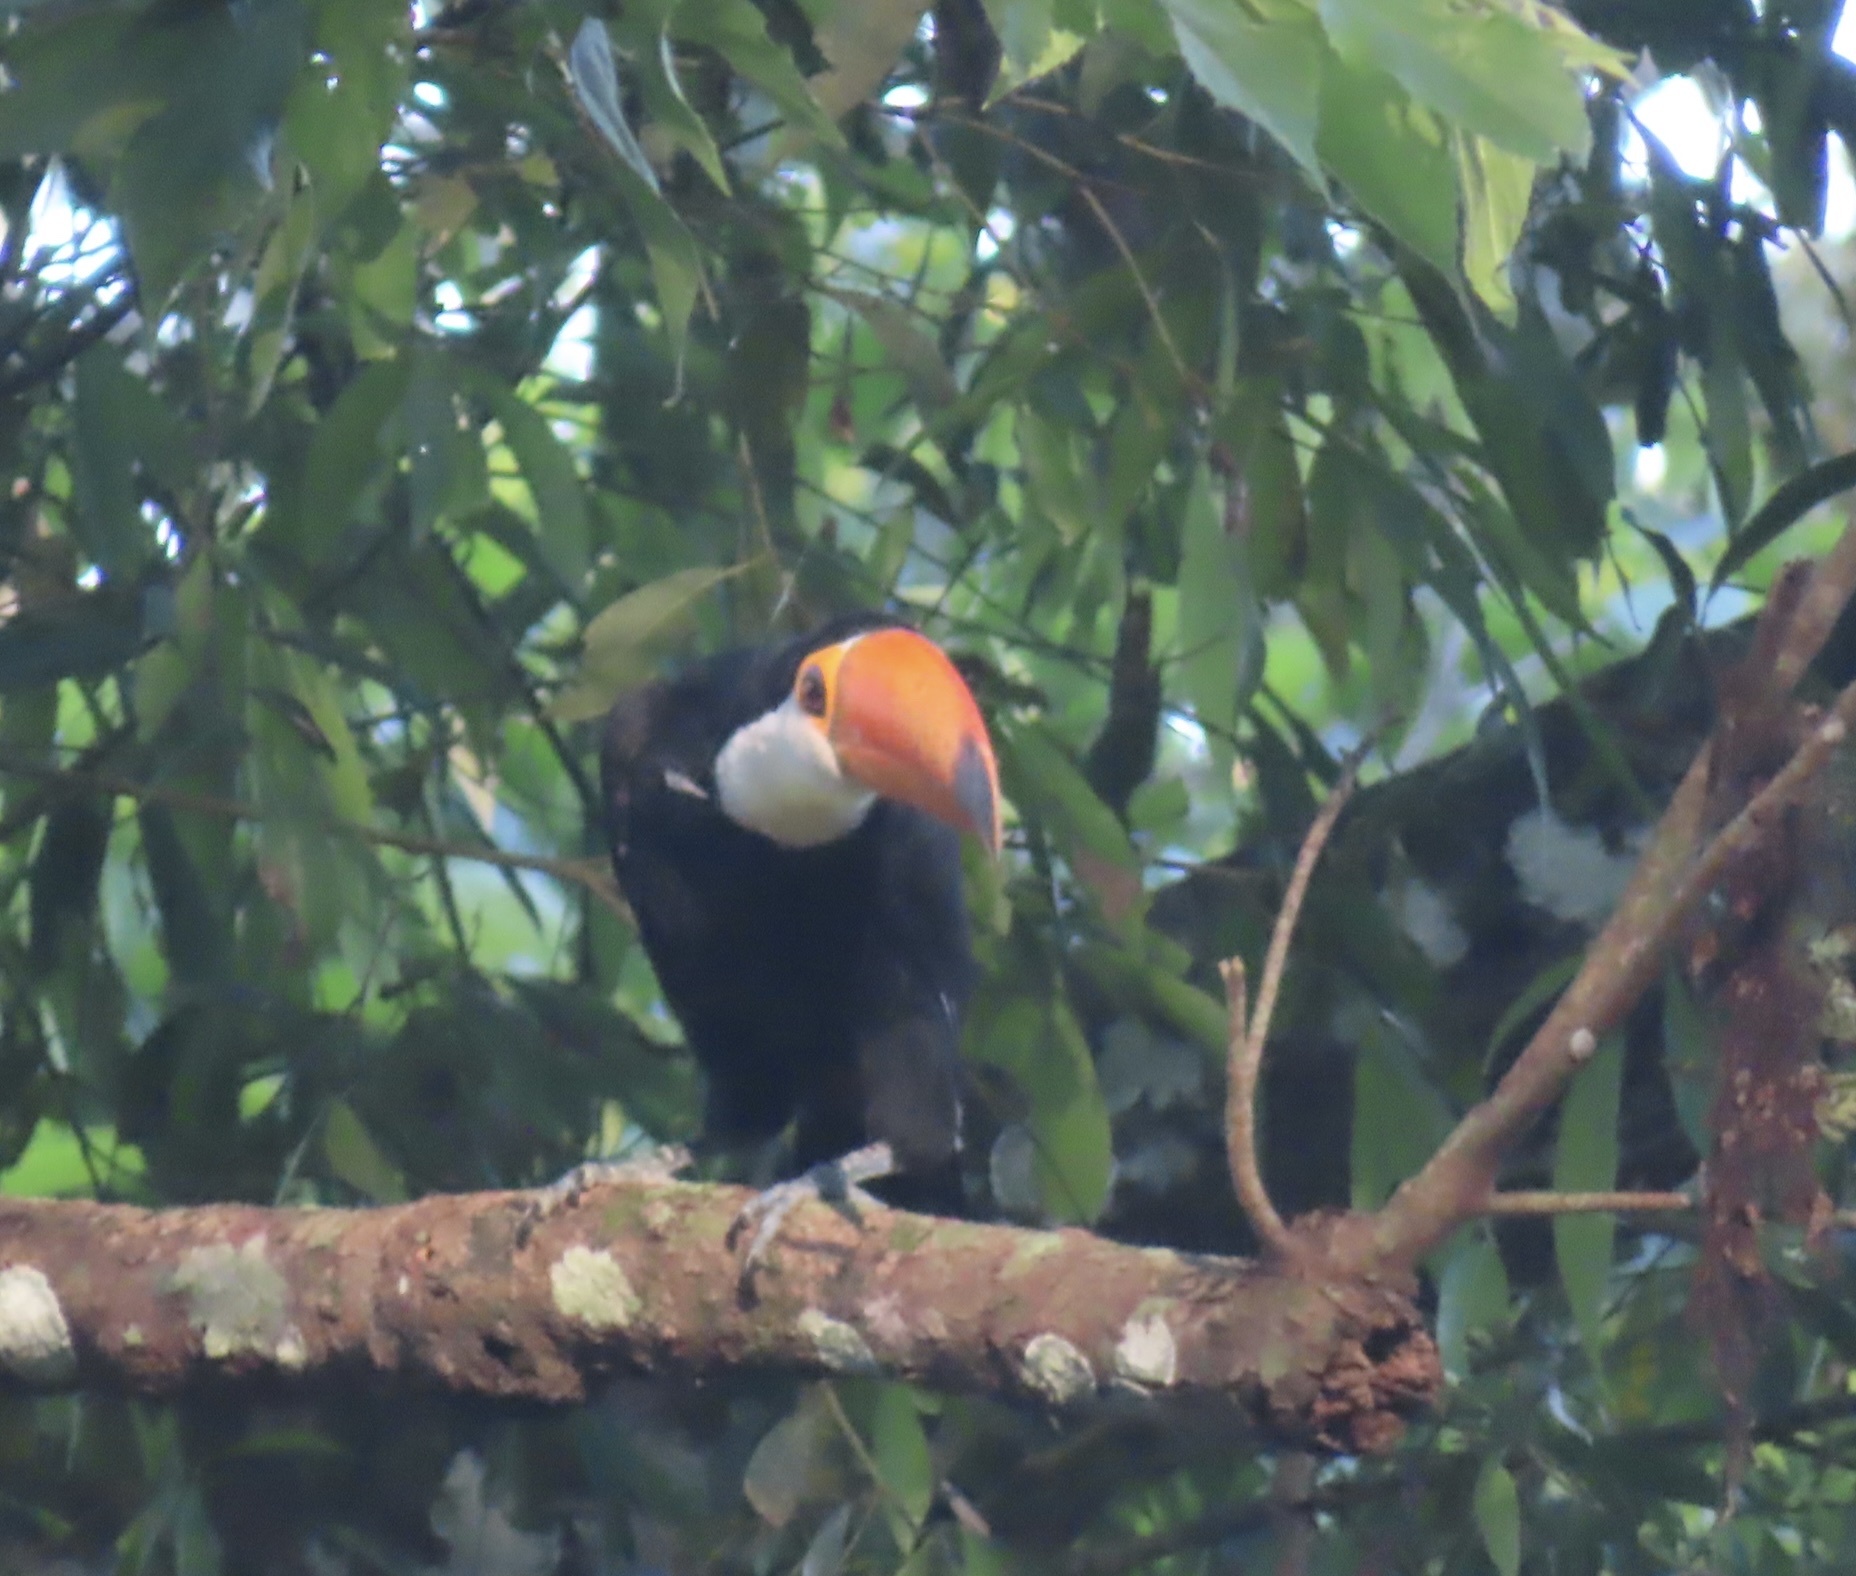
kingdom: Animalia
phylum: Chordata
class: Aves
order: Piciformes
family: Ramphastidae
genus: Ramphastos
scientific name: Ramphastos toco
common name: Toco toucan
